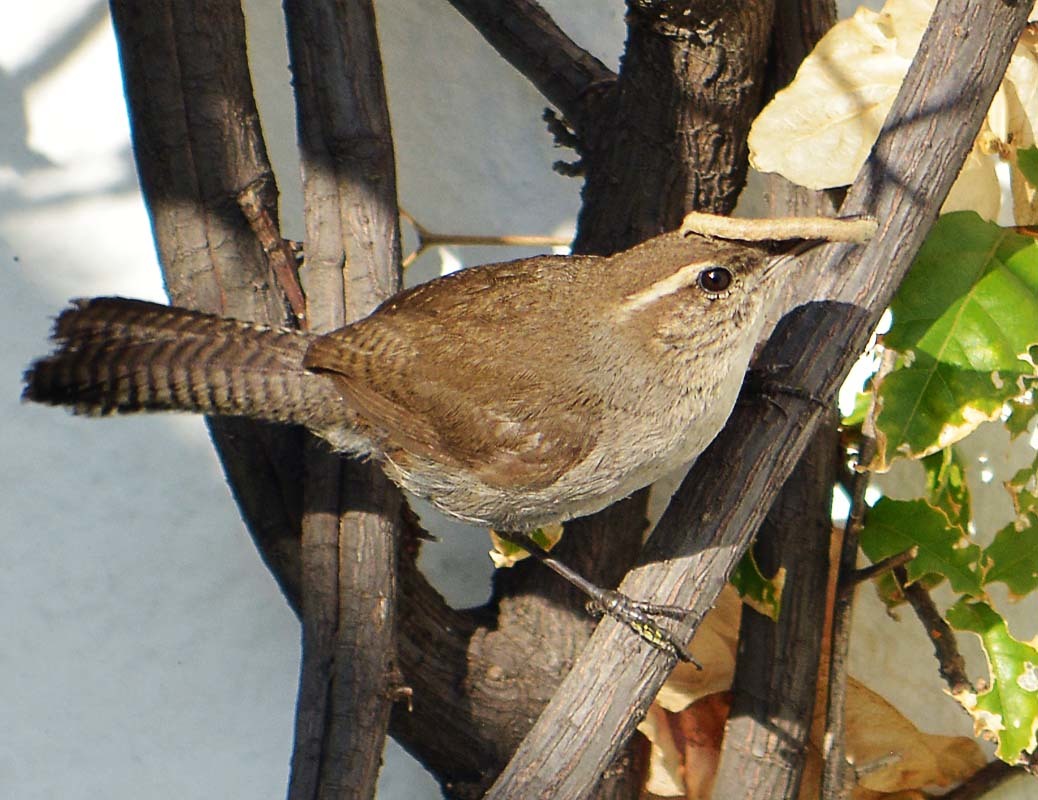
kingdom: Animalia
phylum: Chordata
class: Aves
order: Passeriformes
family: Troglodytidae
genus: Thryomanes
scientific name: Thryomanes bewickii
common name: Bewick's wren
